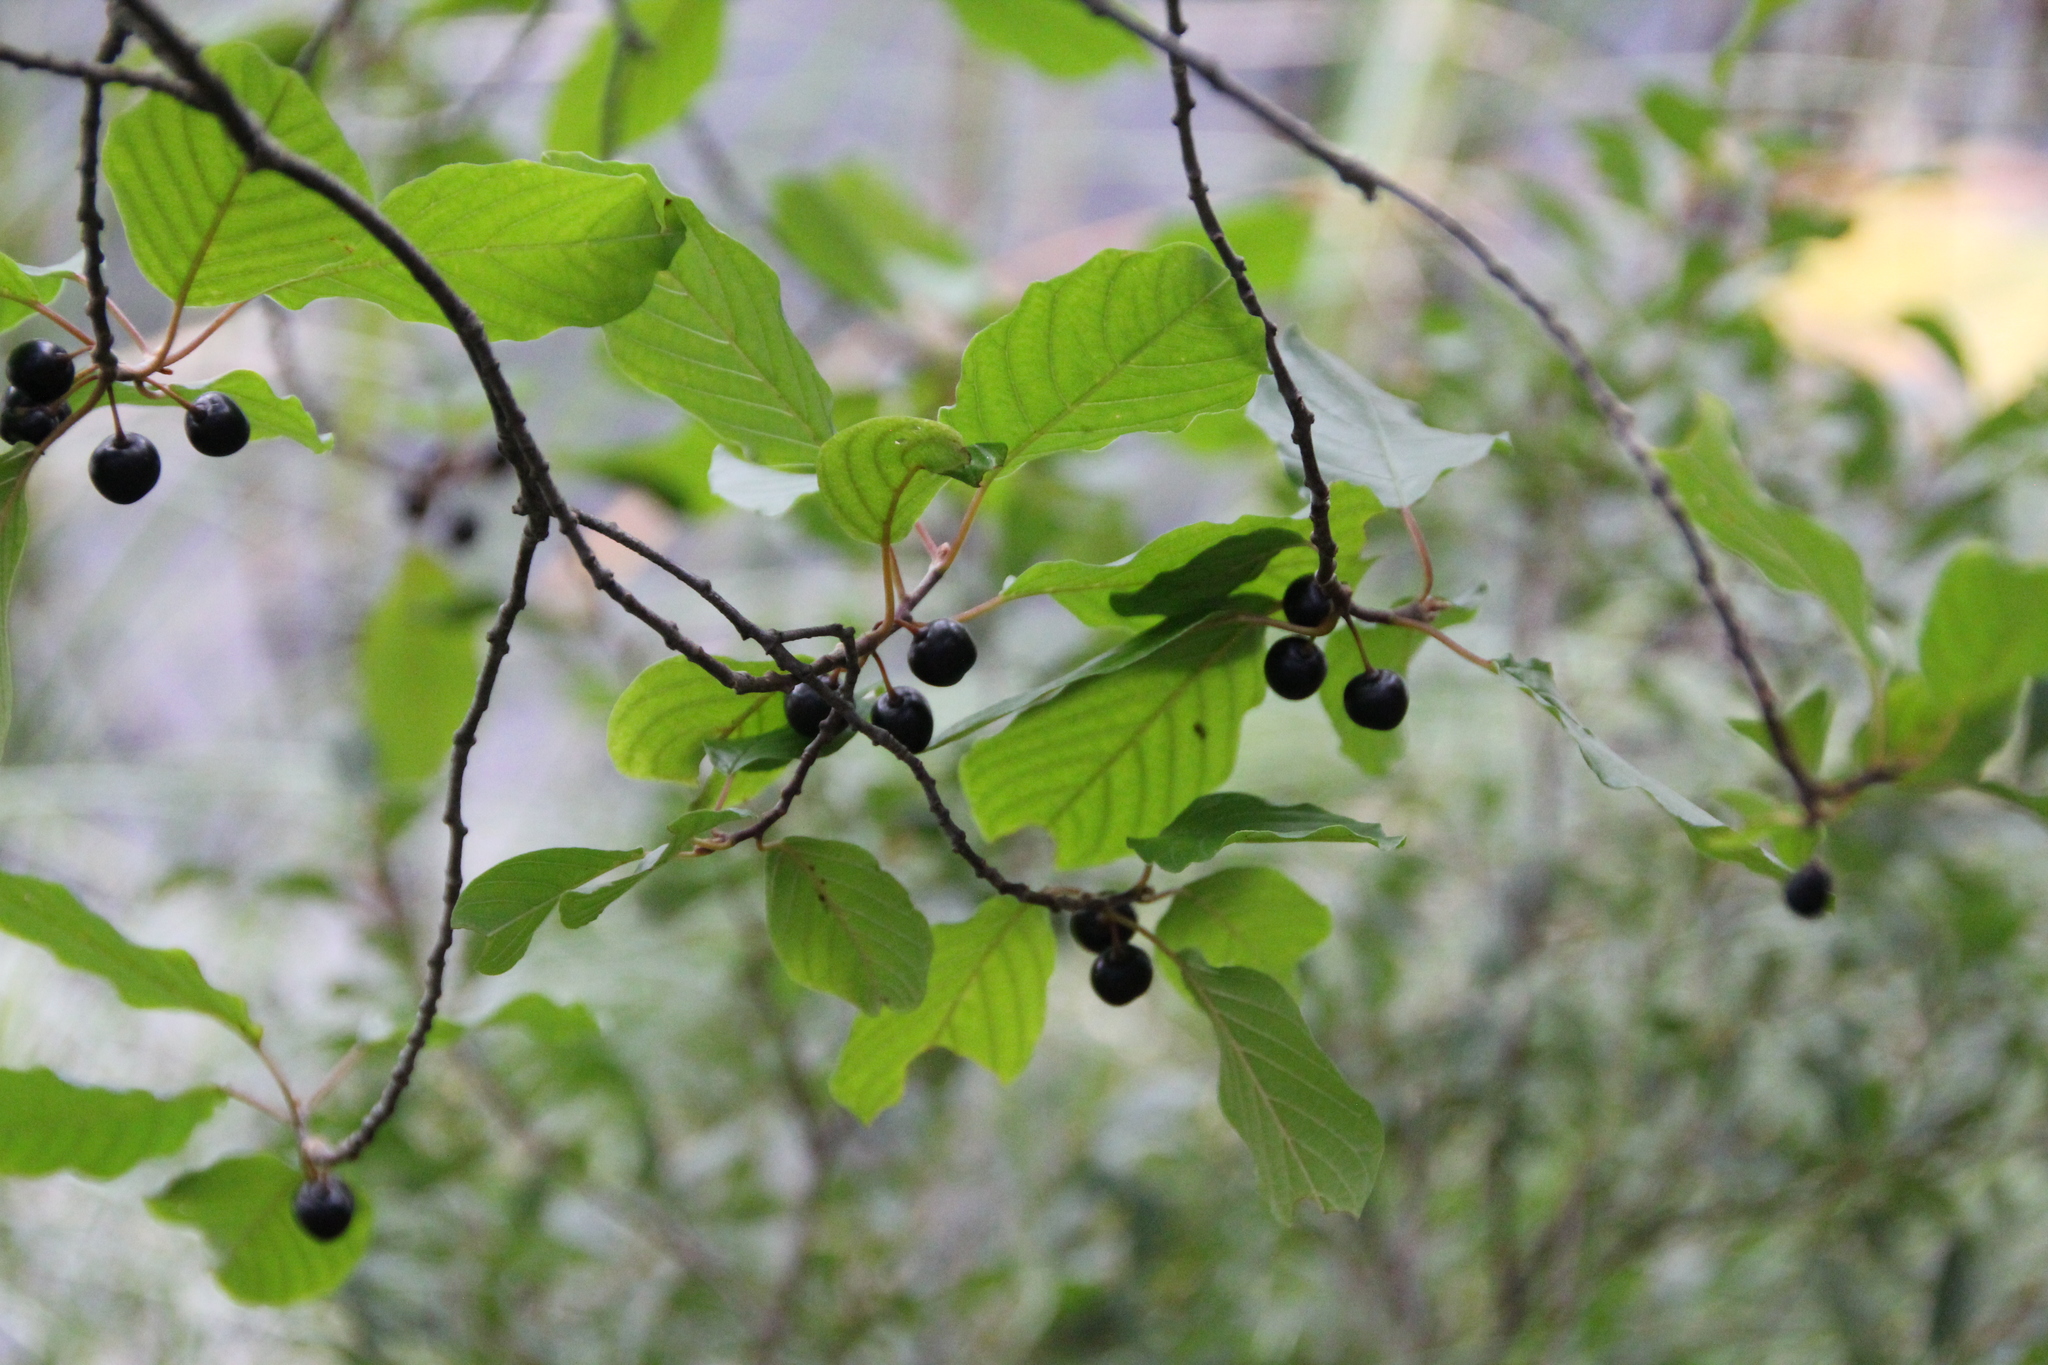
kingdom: Plantae
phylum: Tracheophyta
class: Magnoliopsida
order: Rosales
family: Rhamnaceae
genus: Frangula
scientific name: Frangula alnus
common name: Alder buckthorn
